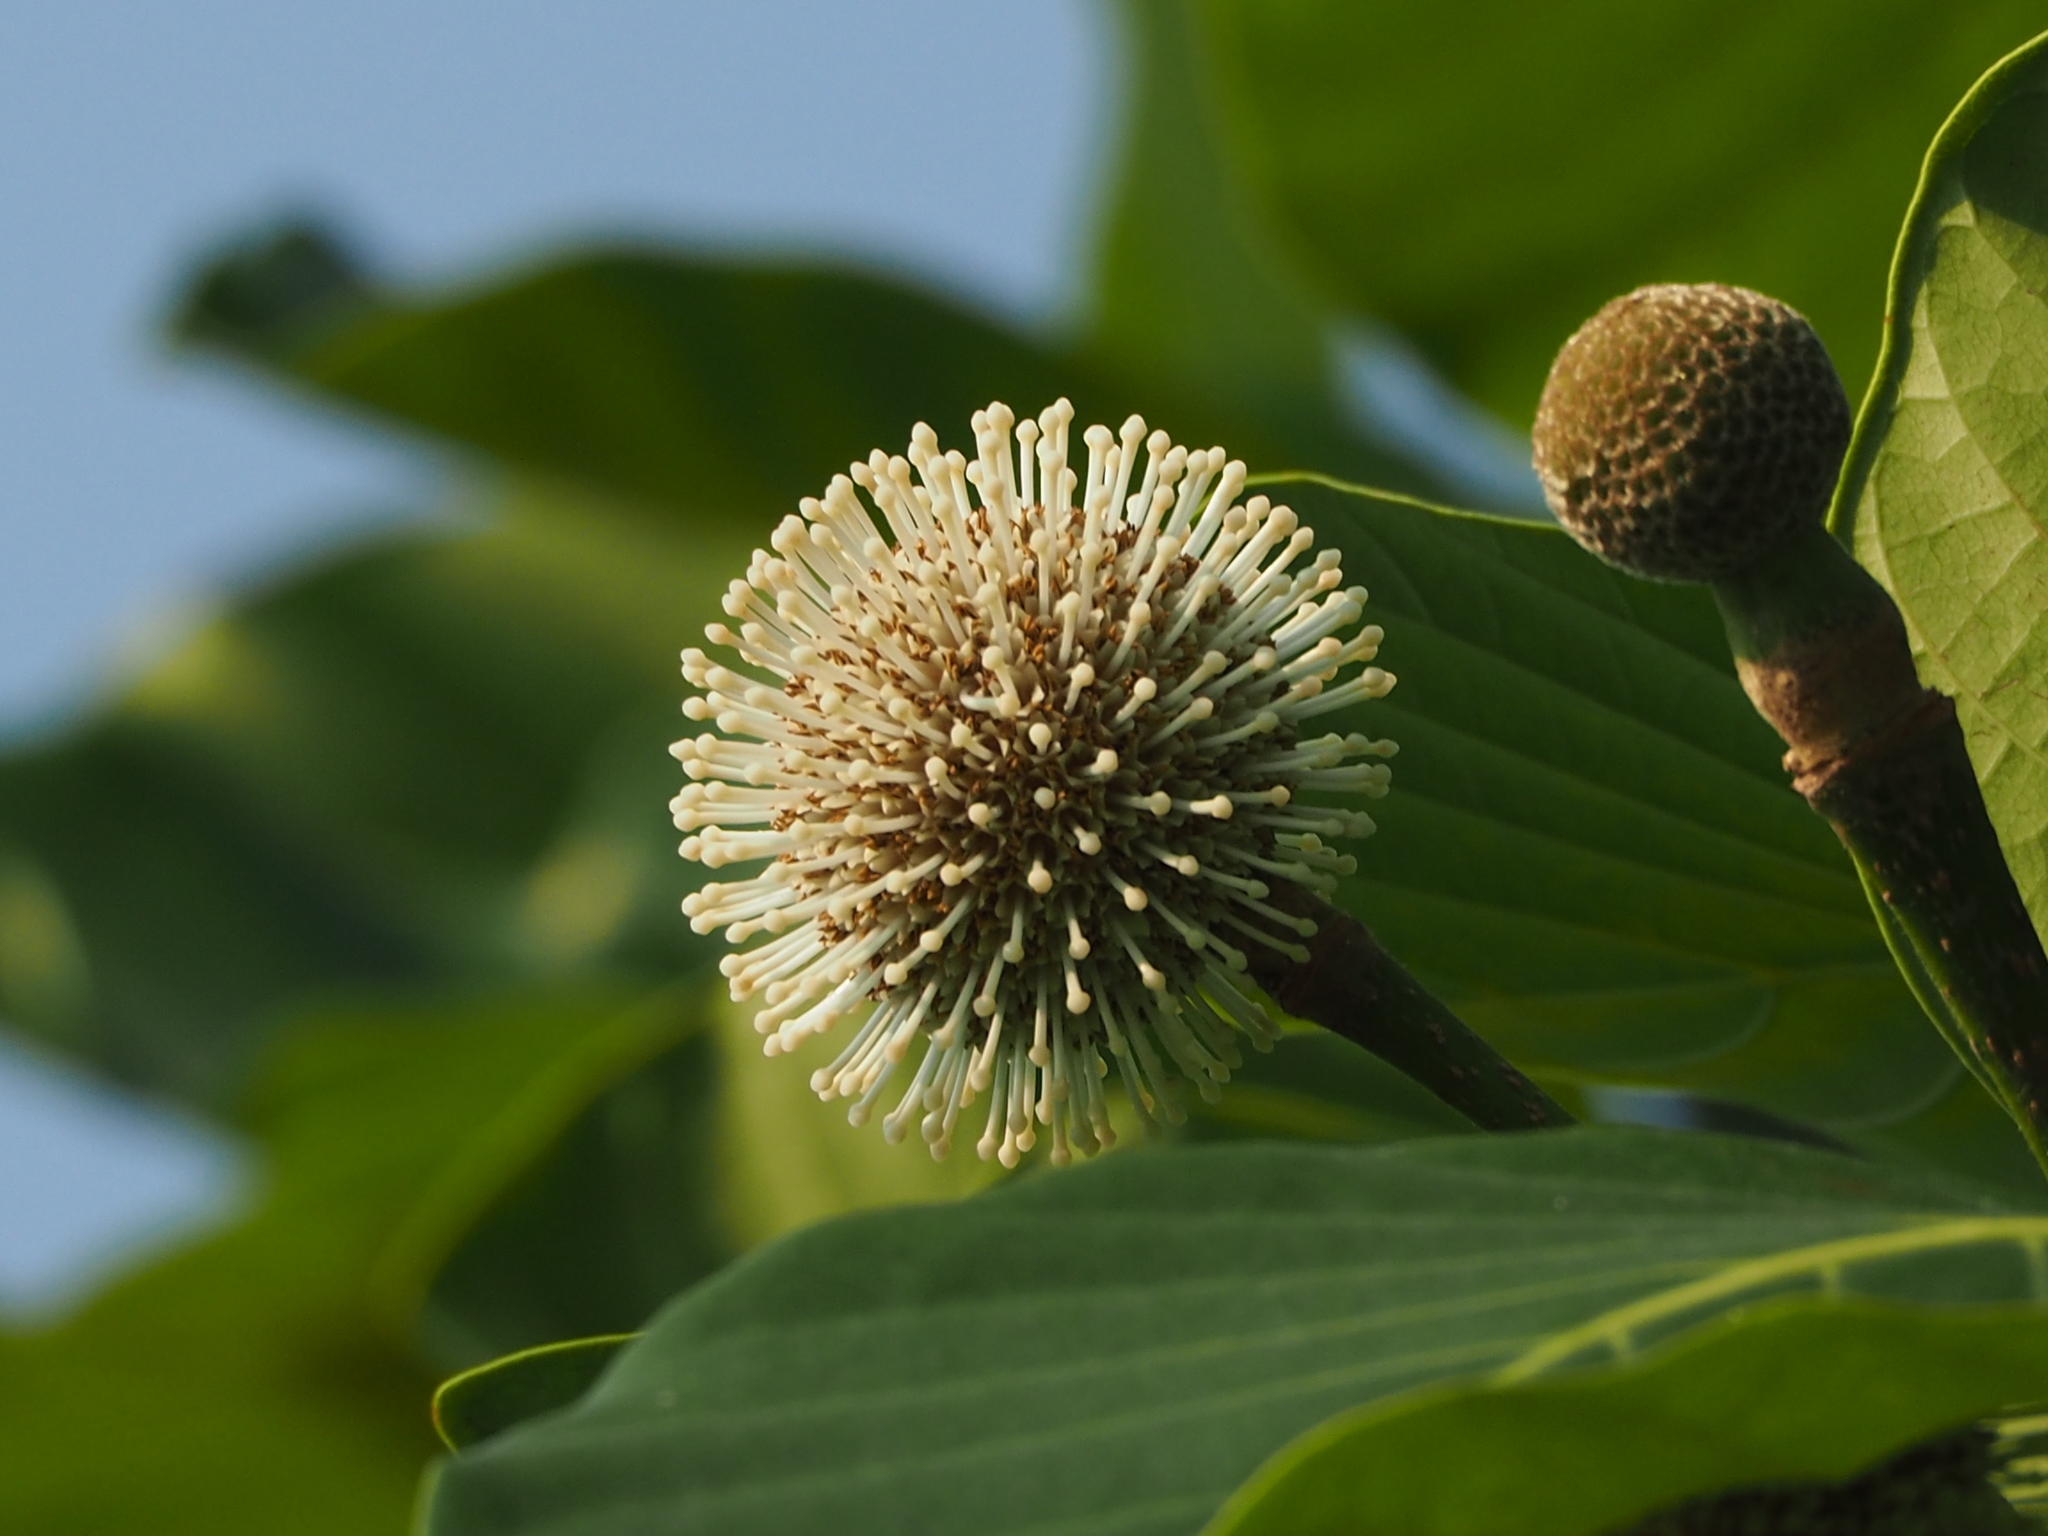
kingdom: Plantae
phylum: Tracheophyta
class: Magnoliopsida
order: Gentianales
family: Rubiaceae
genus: Neonauclea
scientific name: Neonauclea reticulata
